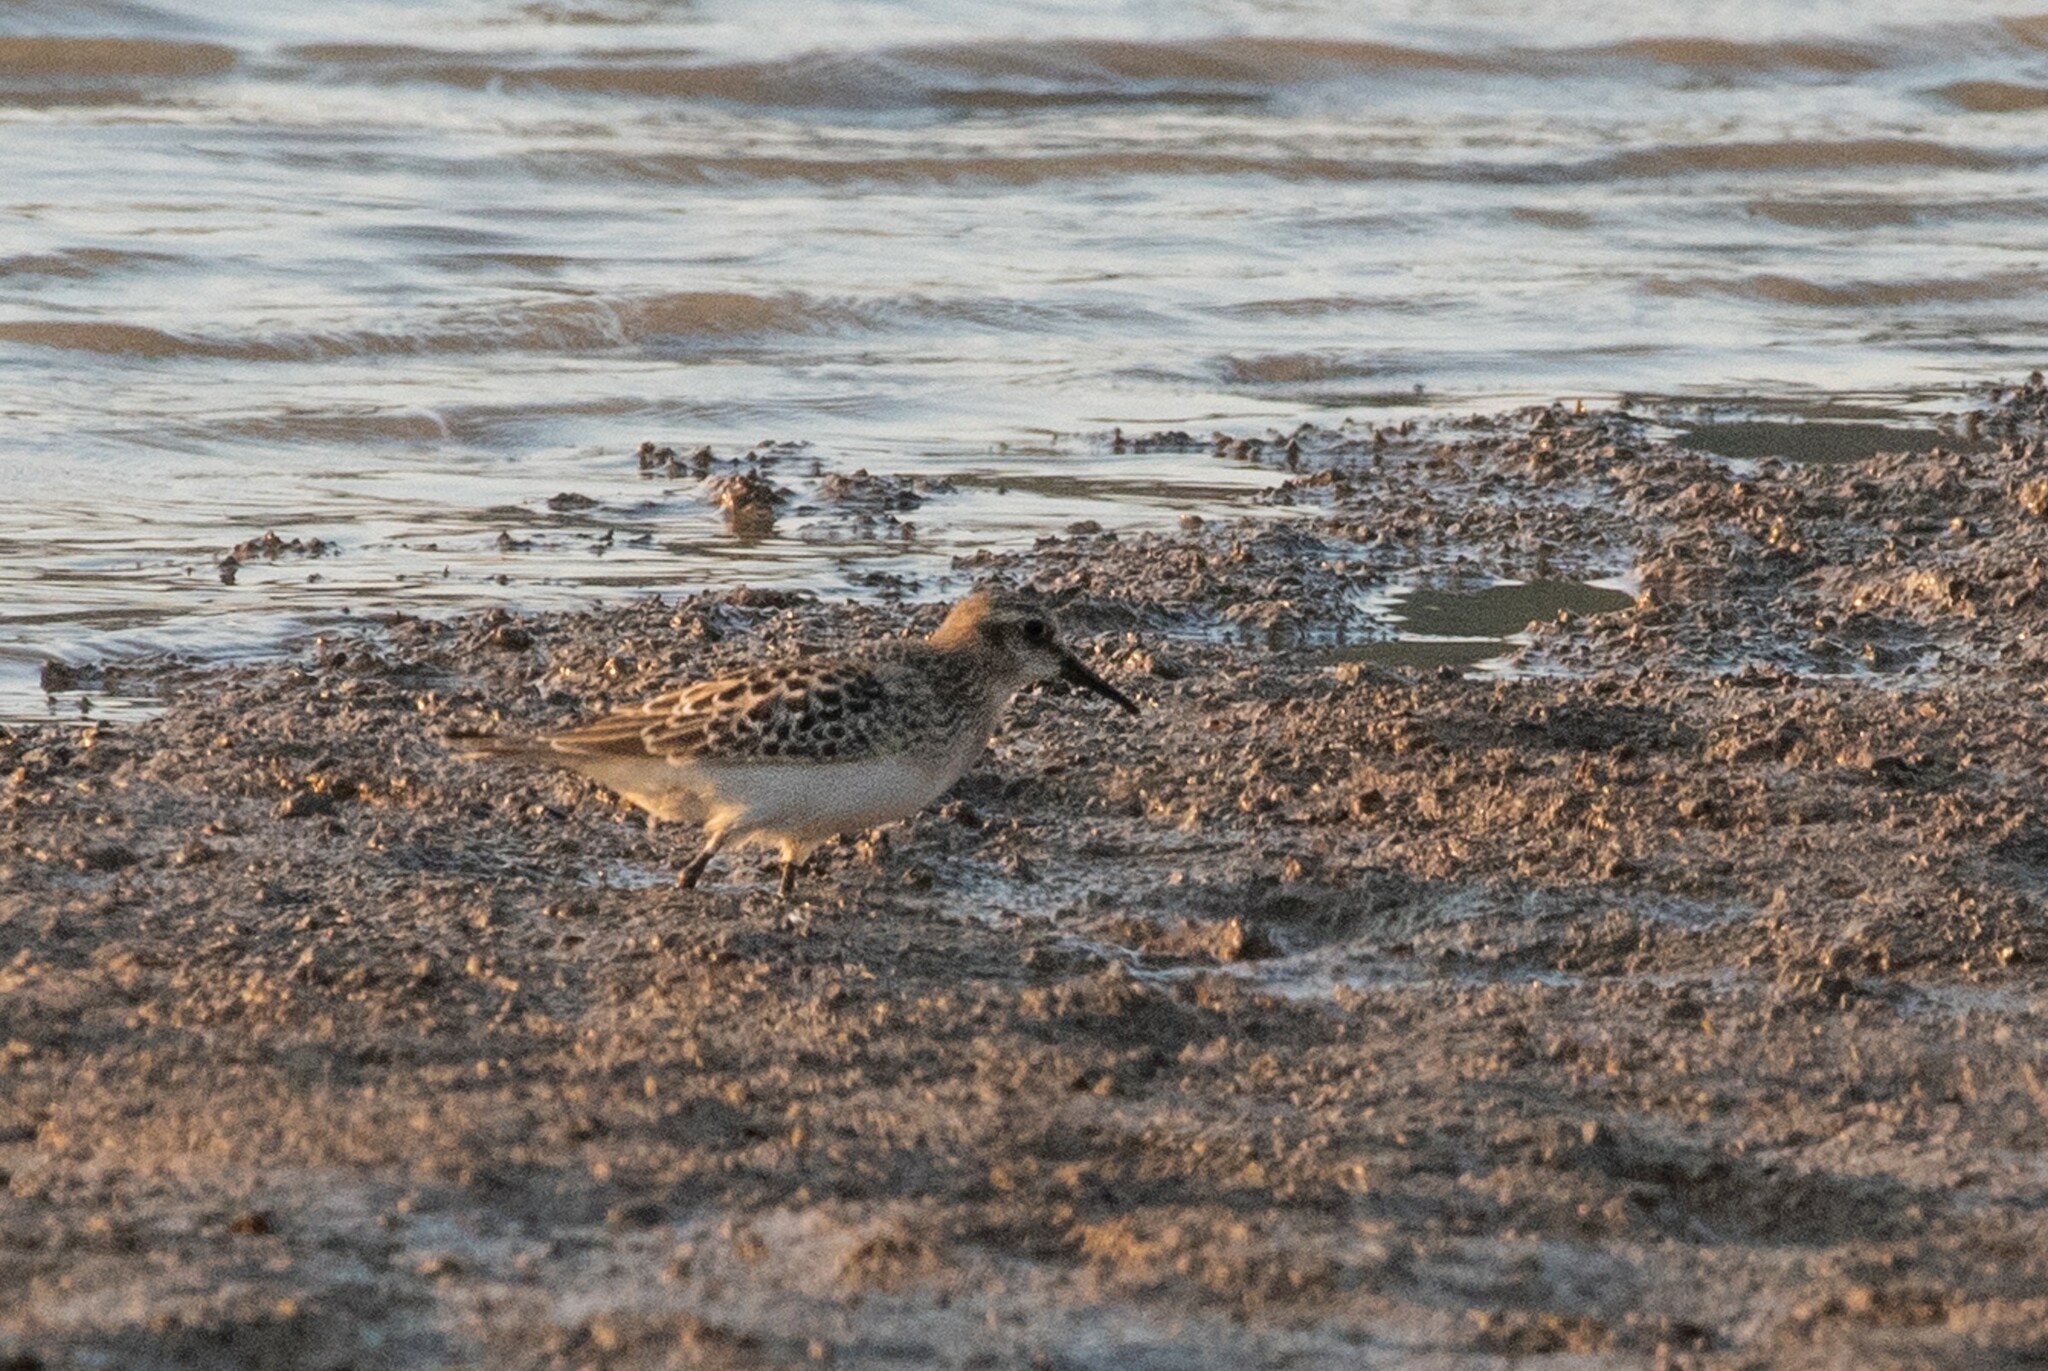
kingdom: Animalia
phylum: Chordata
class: Aves
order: Charadriiformes
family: Scolopacidae
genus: Calidris
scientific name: Calidris bairdii
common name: Baird's sandpiper
